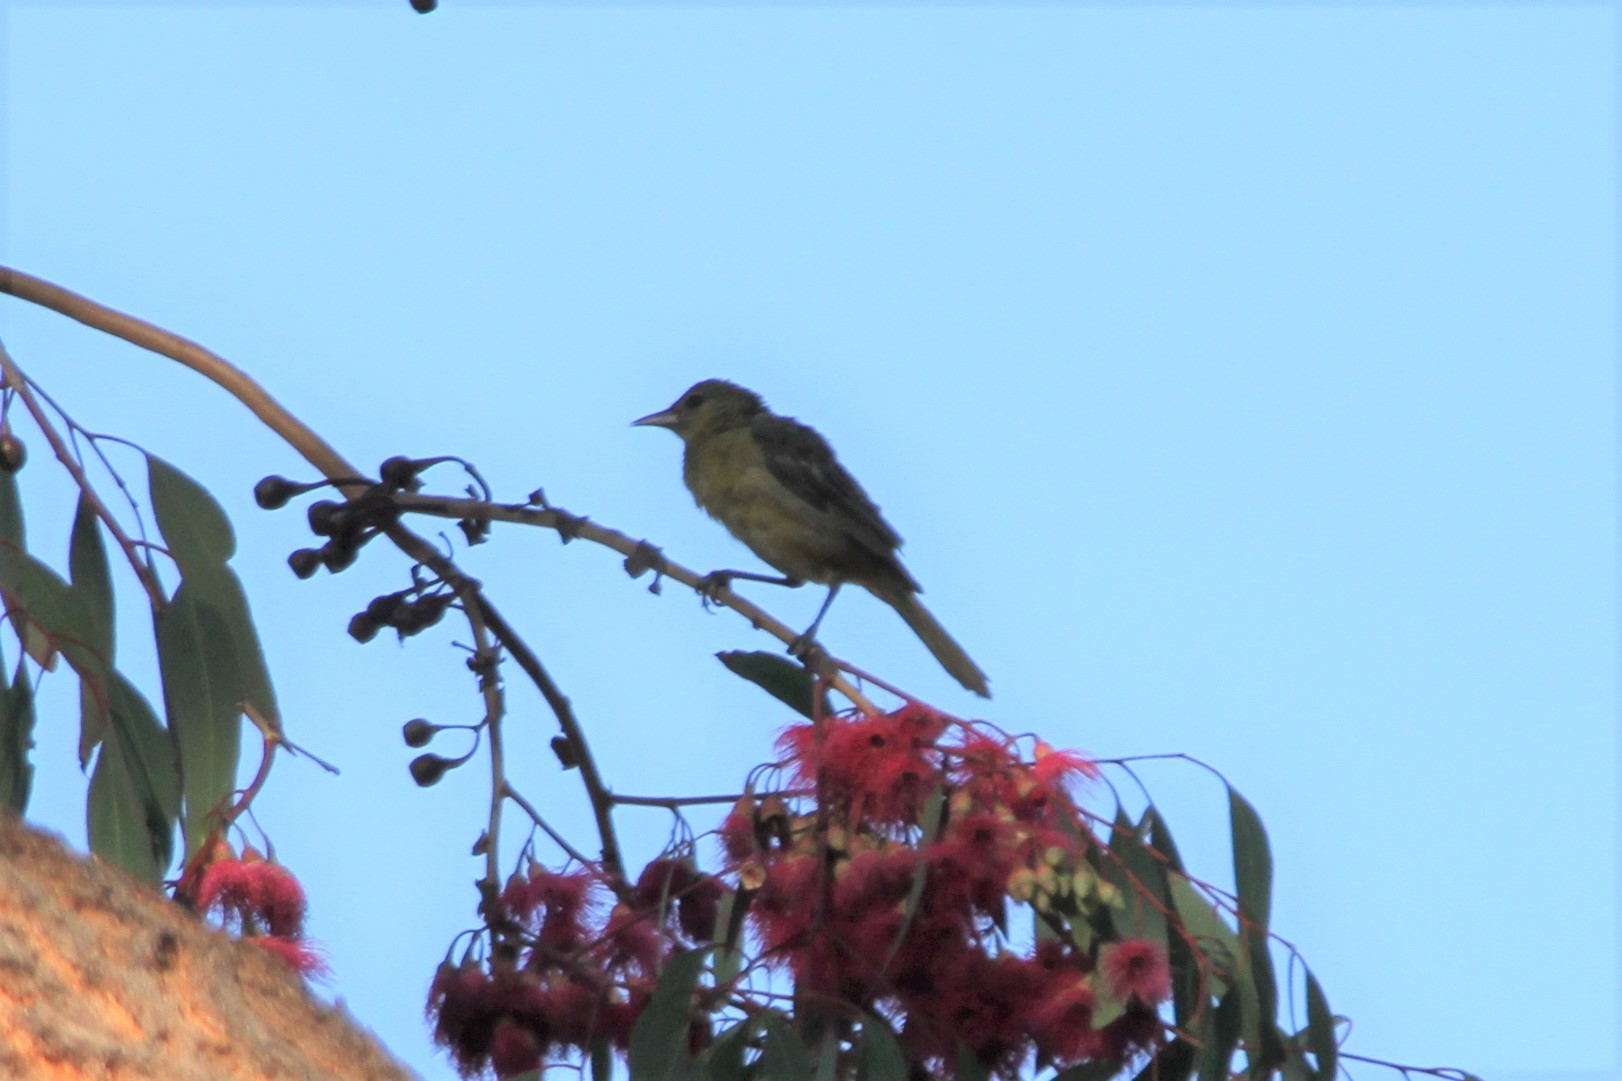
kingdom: Animalia
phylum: Chordata
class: Aves
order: Passeriformes
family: Icteridae
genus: Icterus
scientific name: Icterus cucullatus
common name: Hooded oriole
